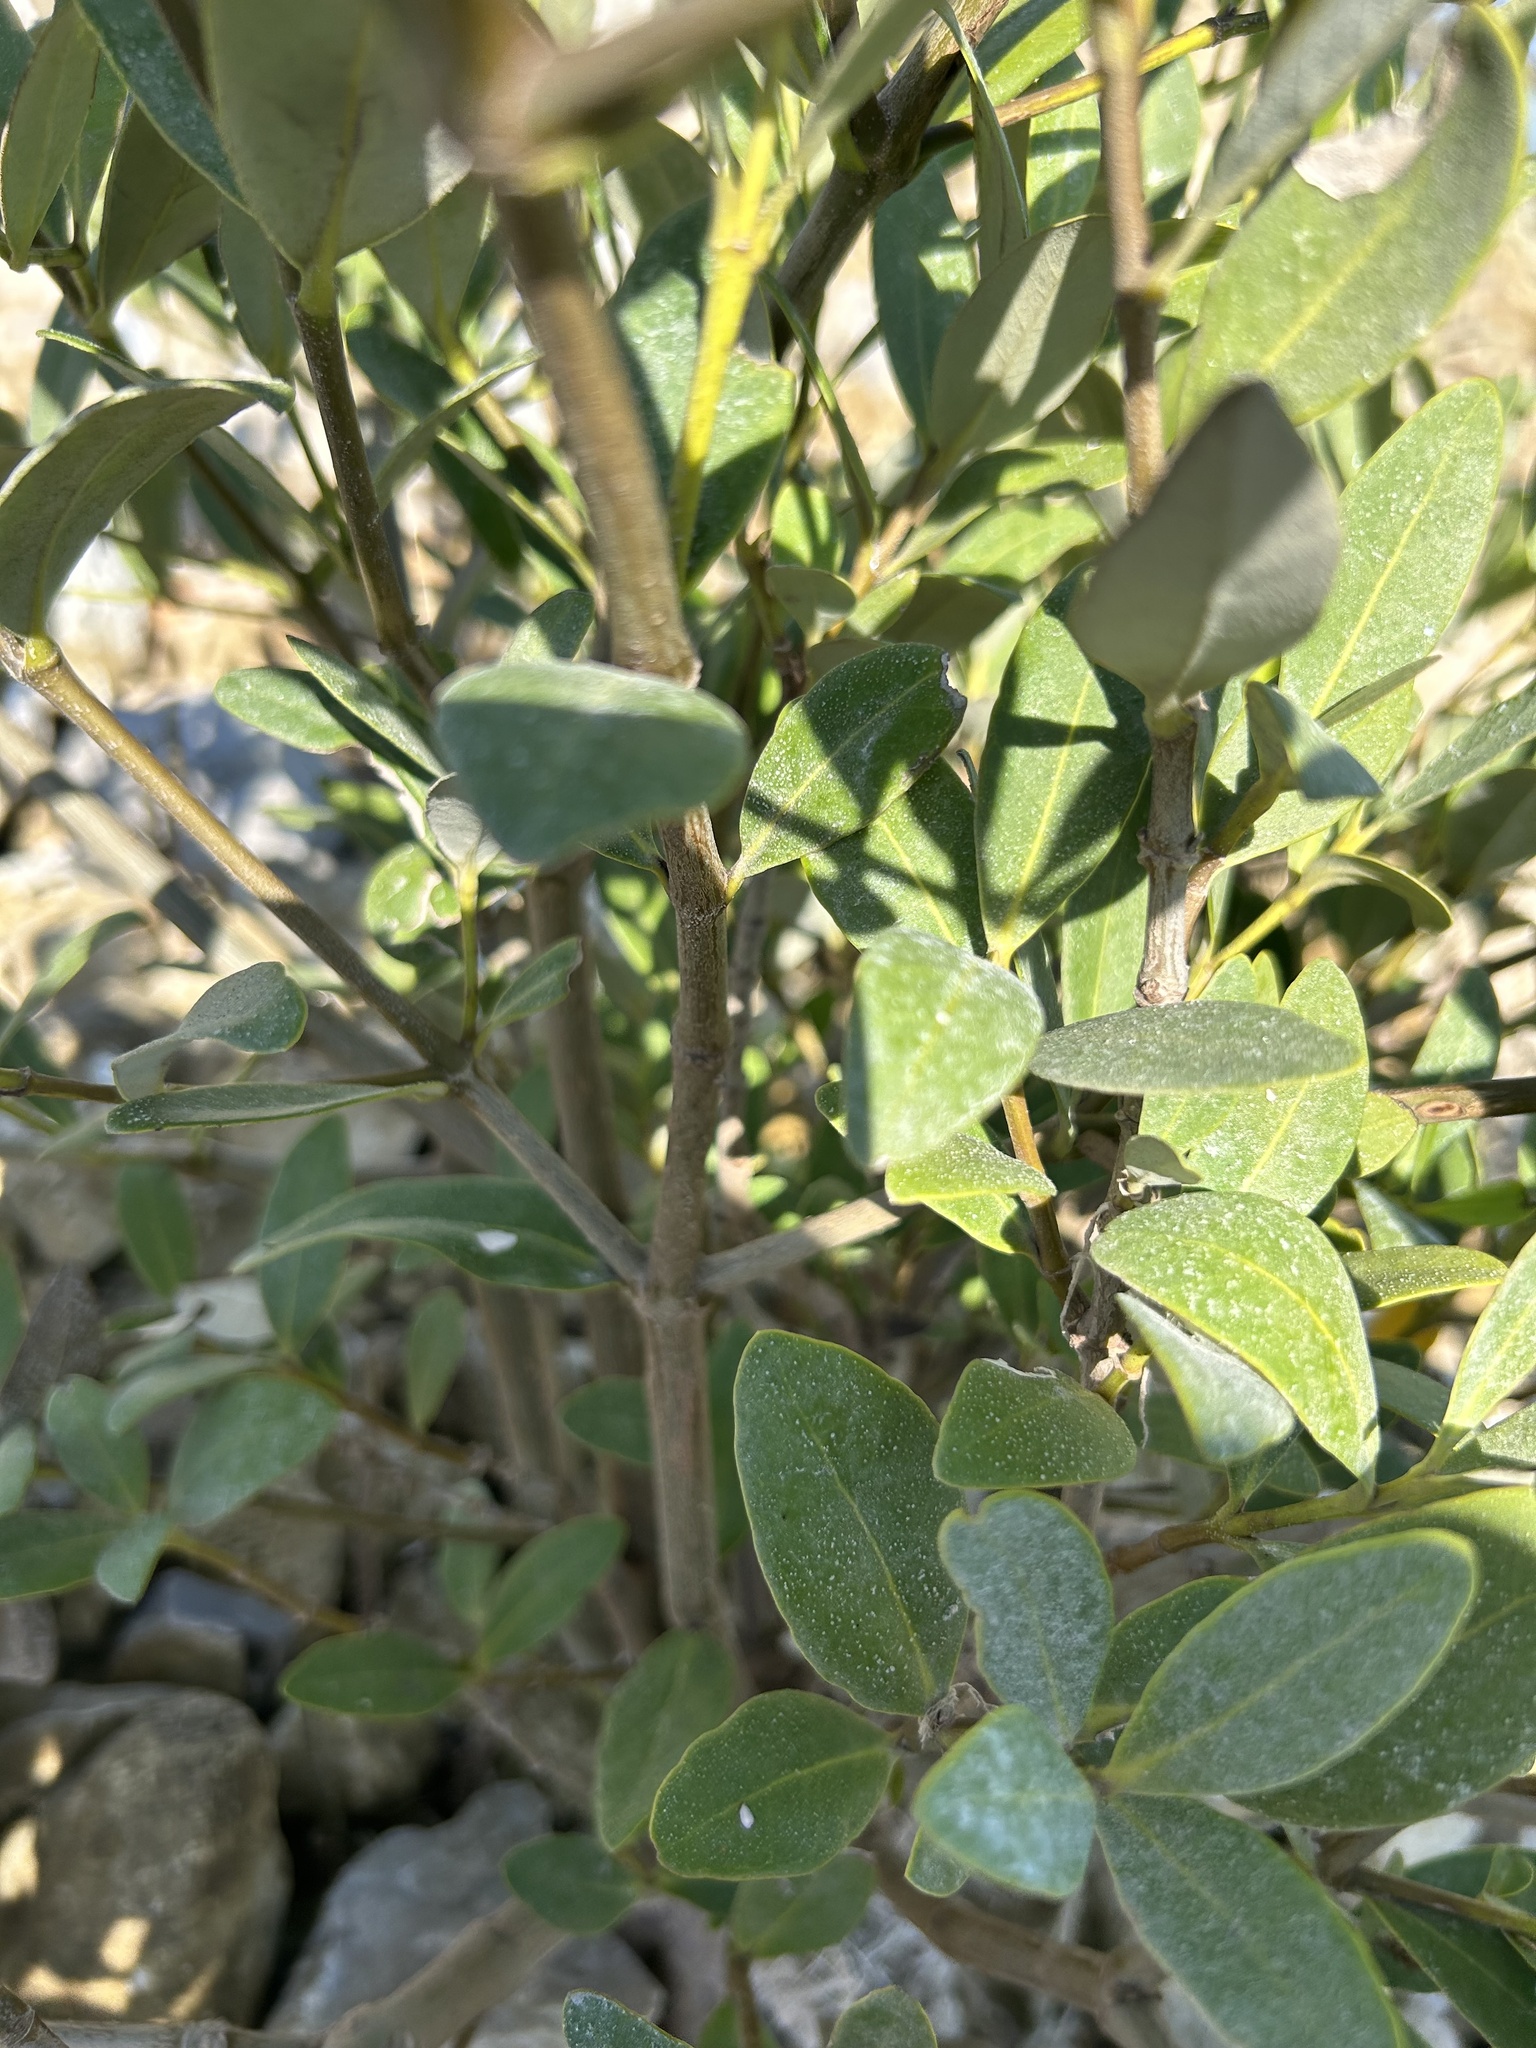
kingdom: Plantae
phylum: Tracheophyta
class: Magnoliopsida
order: Lamiales
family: Acanthaceae
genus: Avicennia
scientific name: Avicennia germinans
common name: Black mangrove
